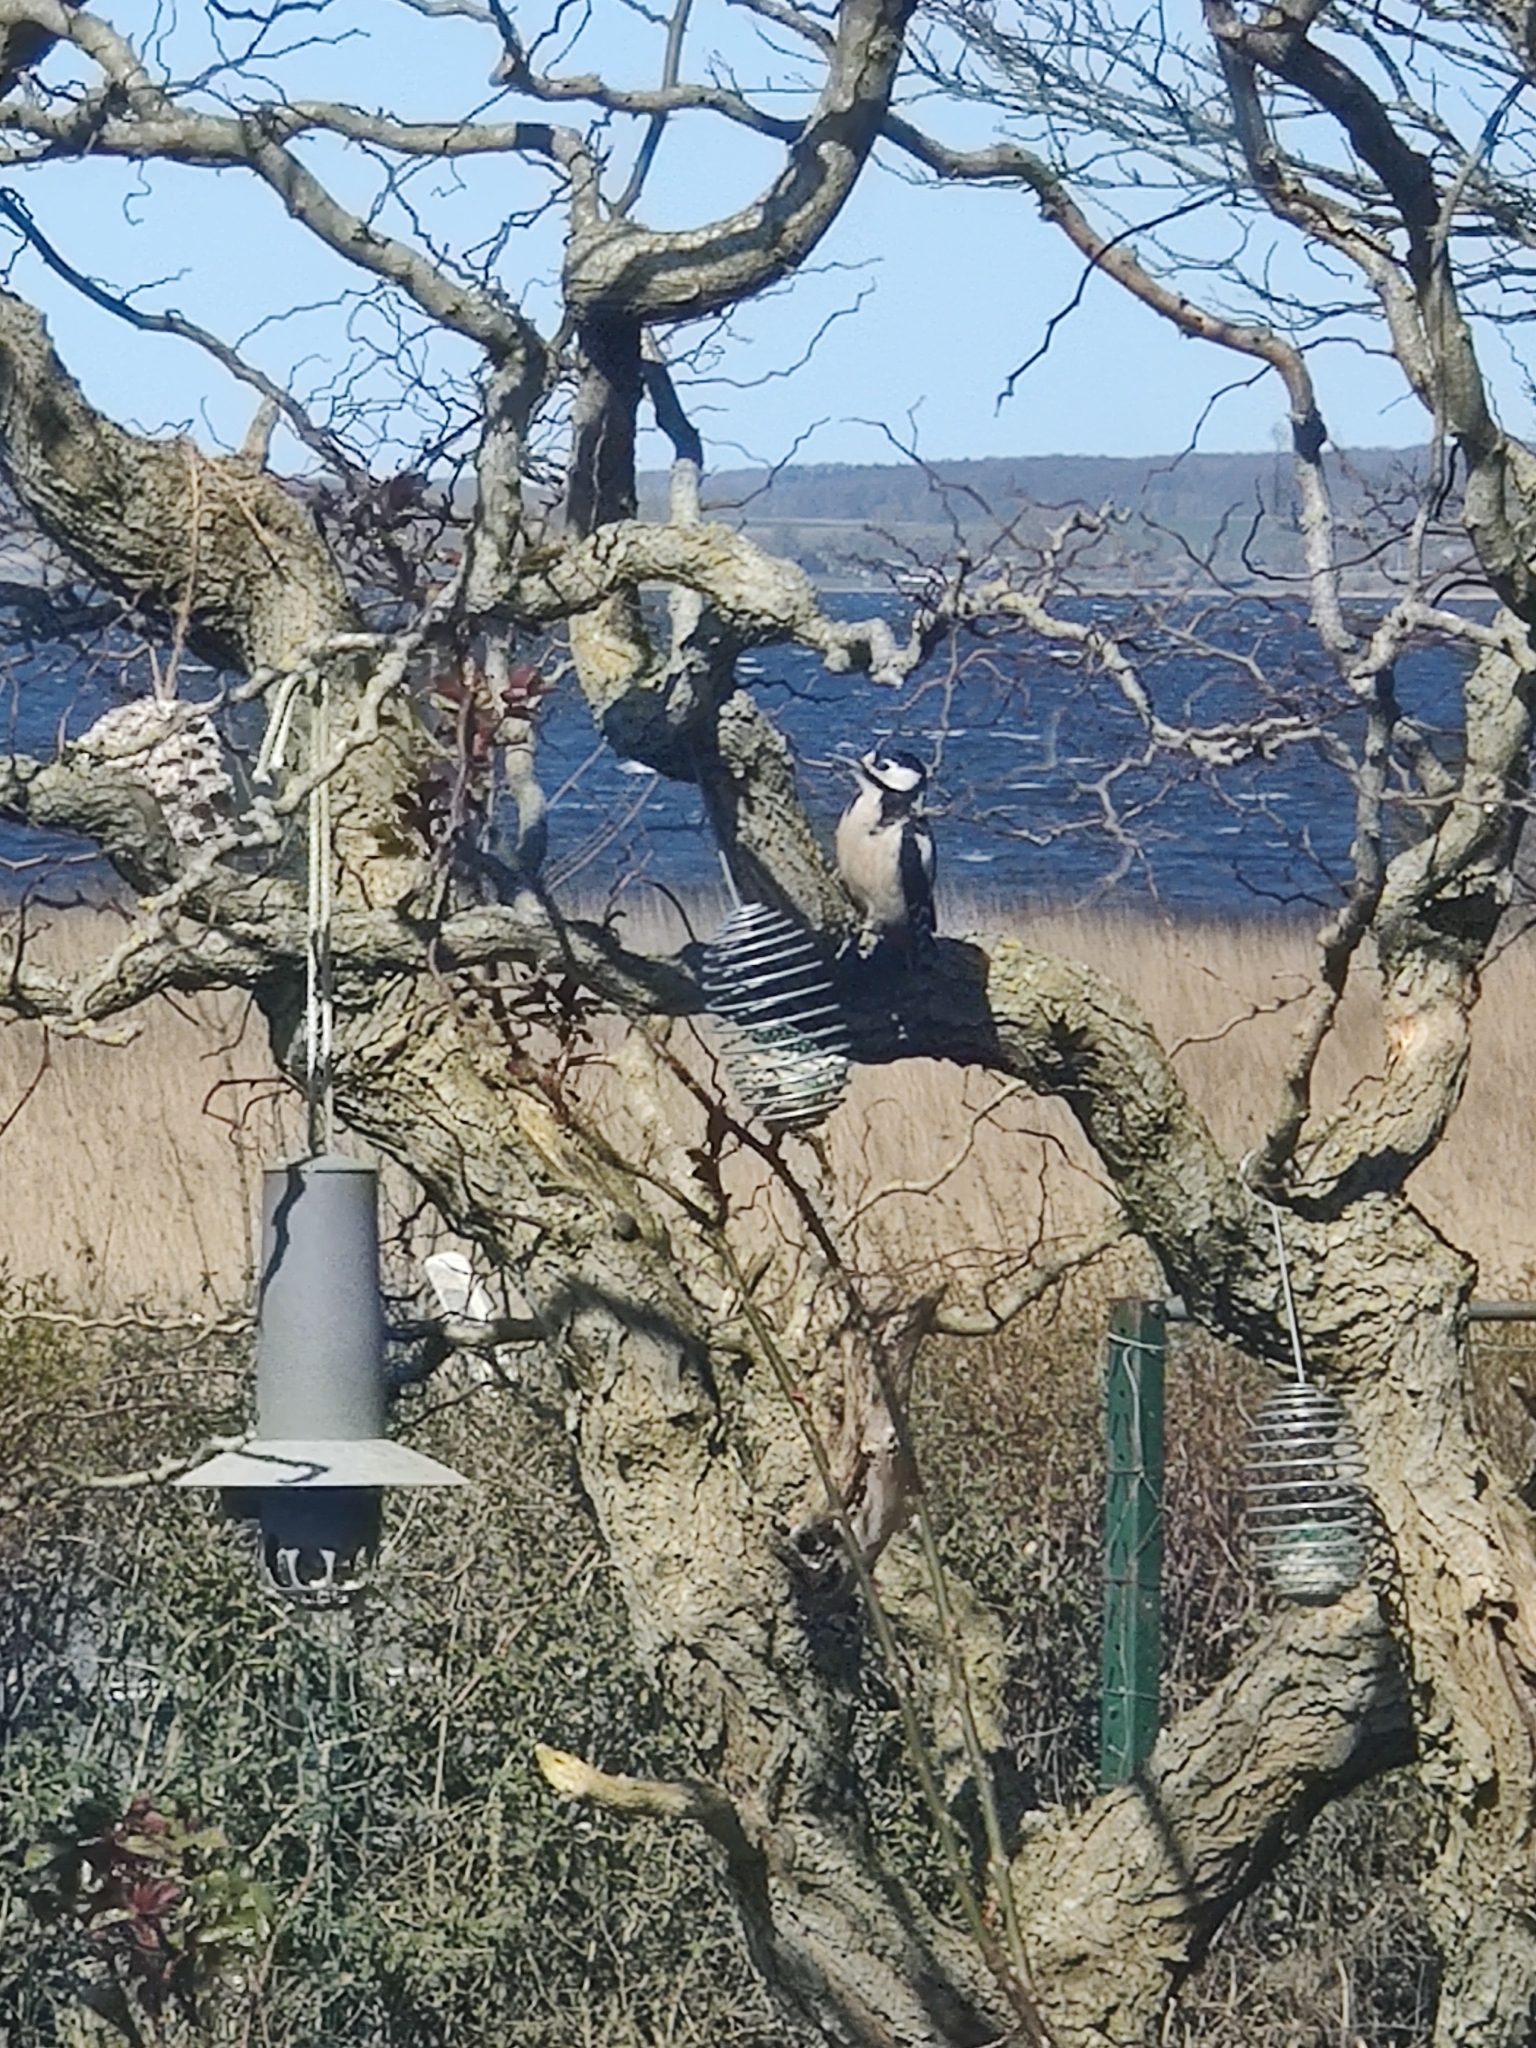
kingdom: Animalia
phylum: Chordata
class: Aves
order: Piciformes
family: Picidae
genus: Dendrocopos
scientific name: Dendrocopos major
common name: Great spotted woodpecker
